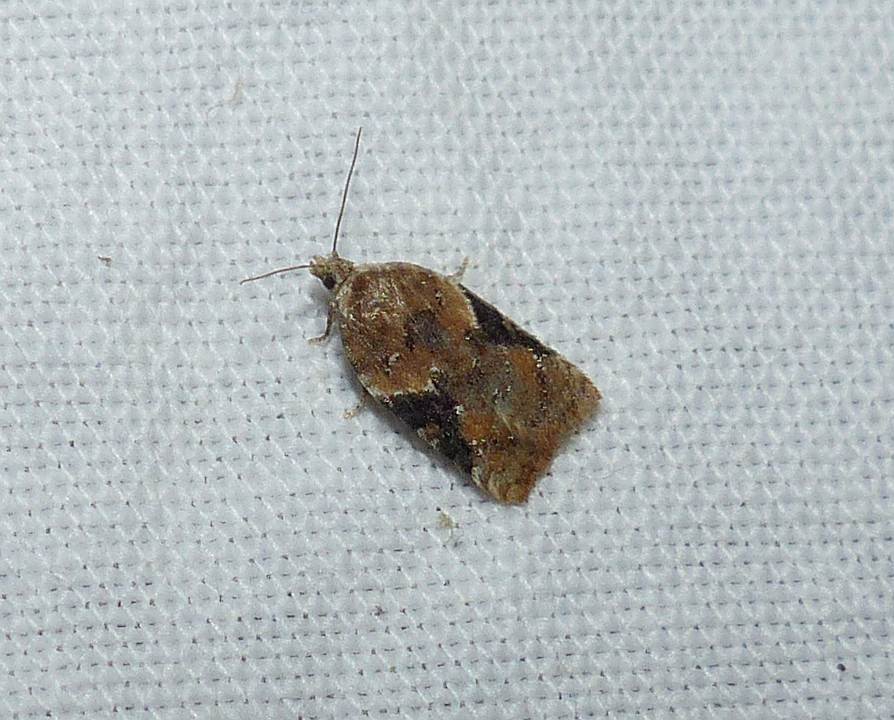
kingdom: Animalia
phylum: Arthropoda
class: Insecta
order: Lepidoptera
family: Tortricidae
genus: Acleris
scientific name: Acleris braunana
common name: Alder leafroller
